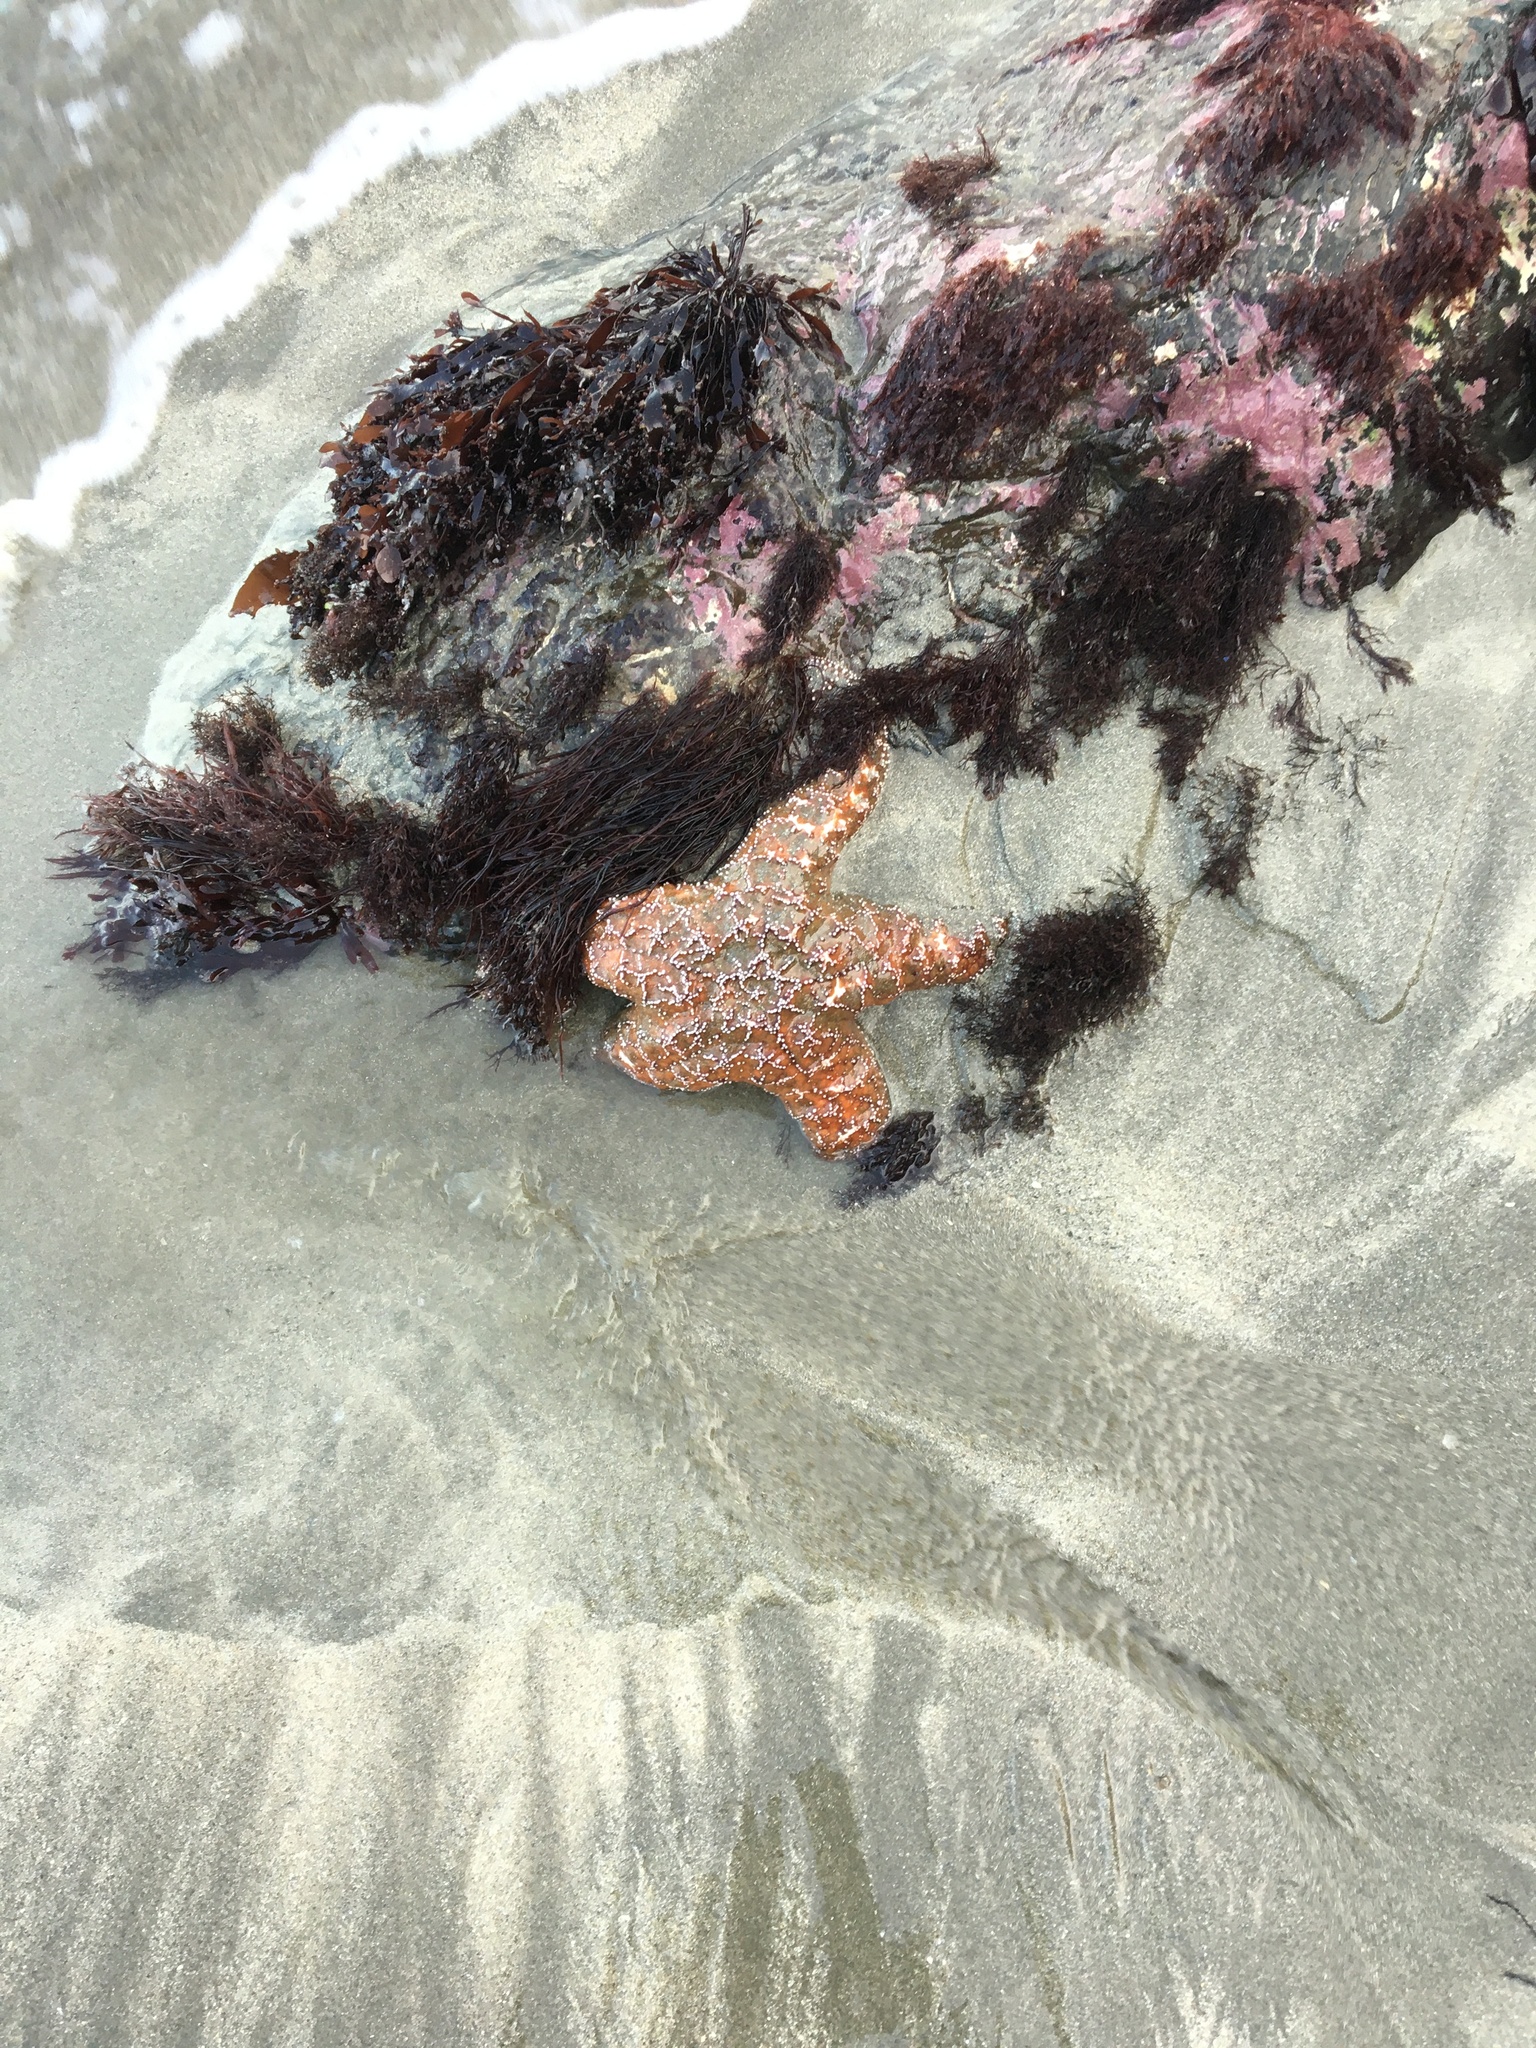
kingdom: Animalia
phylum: Echinodermata
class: Asteroidea
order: Forcipulatida
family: Asteriidae
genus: Pisaster
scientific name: Pisaster ochraceus
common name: Ochre stars
